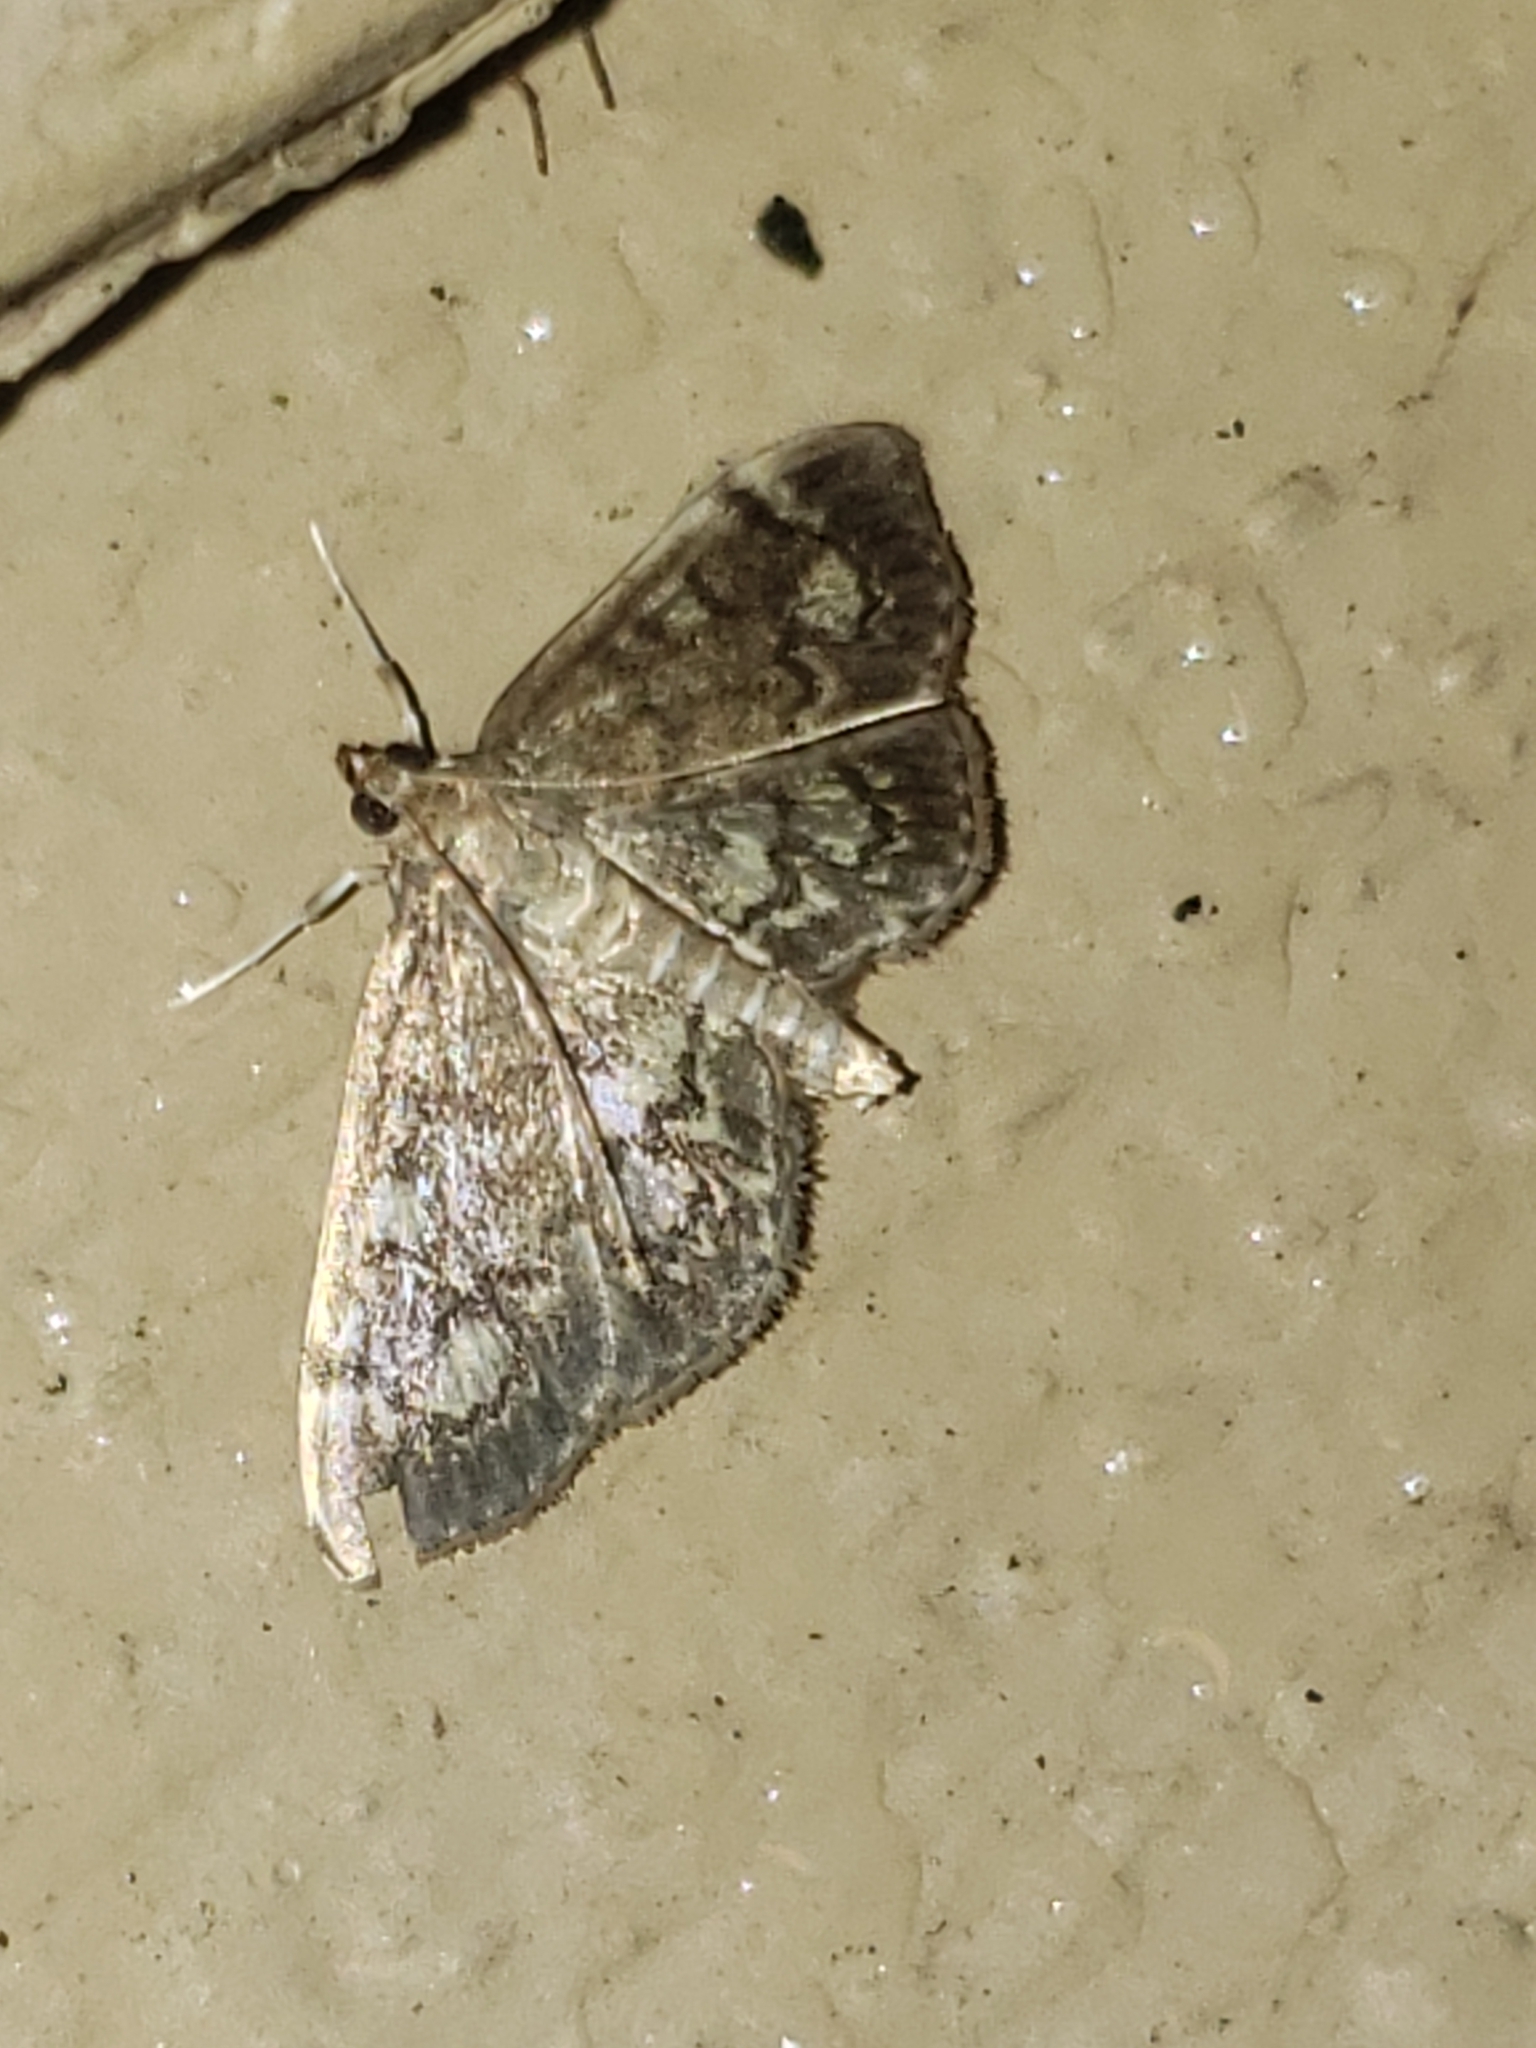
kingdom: Animalia
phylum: Arthropoda
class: Insecta
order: Lepidoptera
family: Crambidae
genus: Anania
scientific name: Anania
